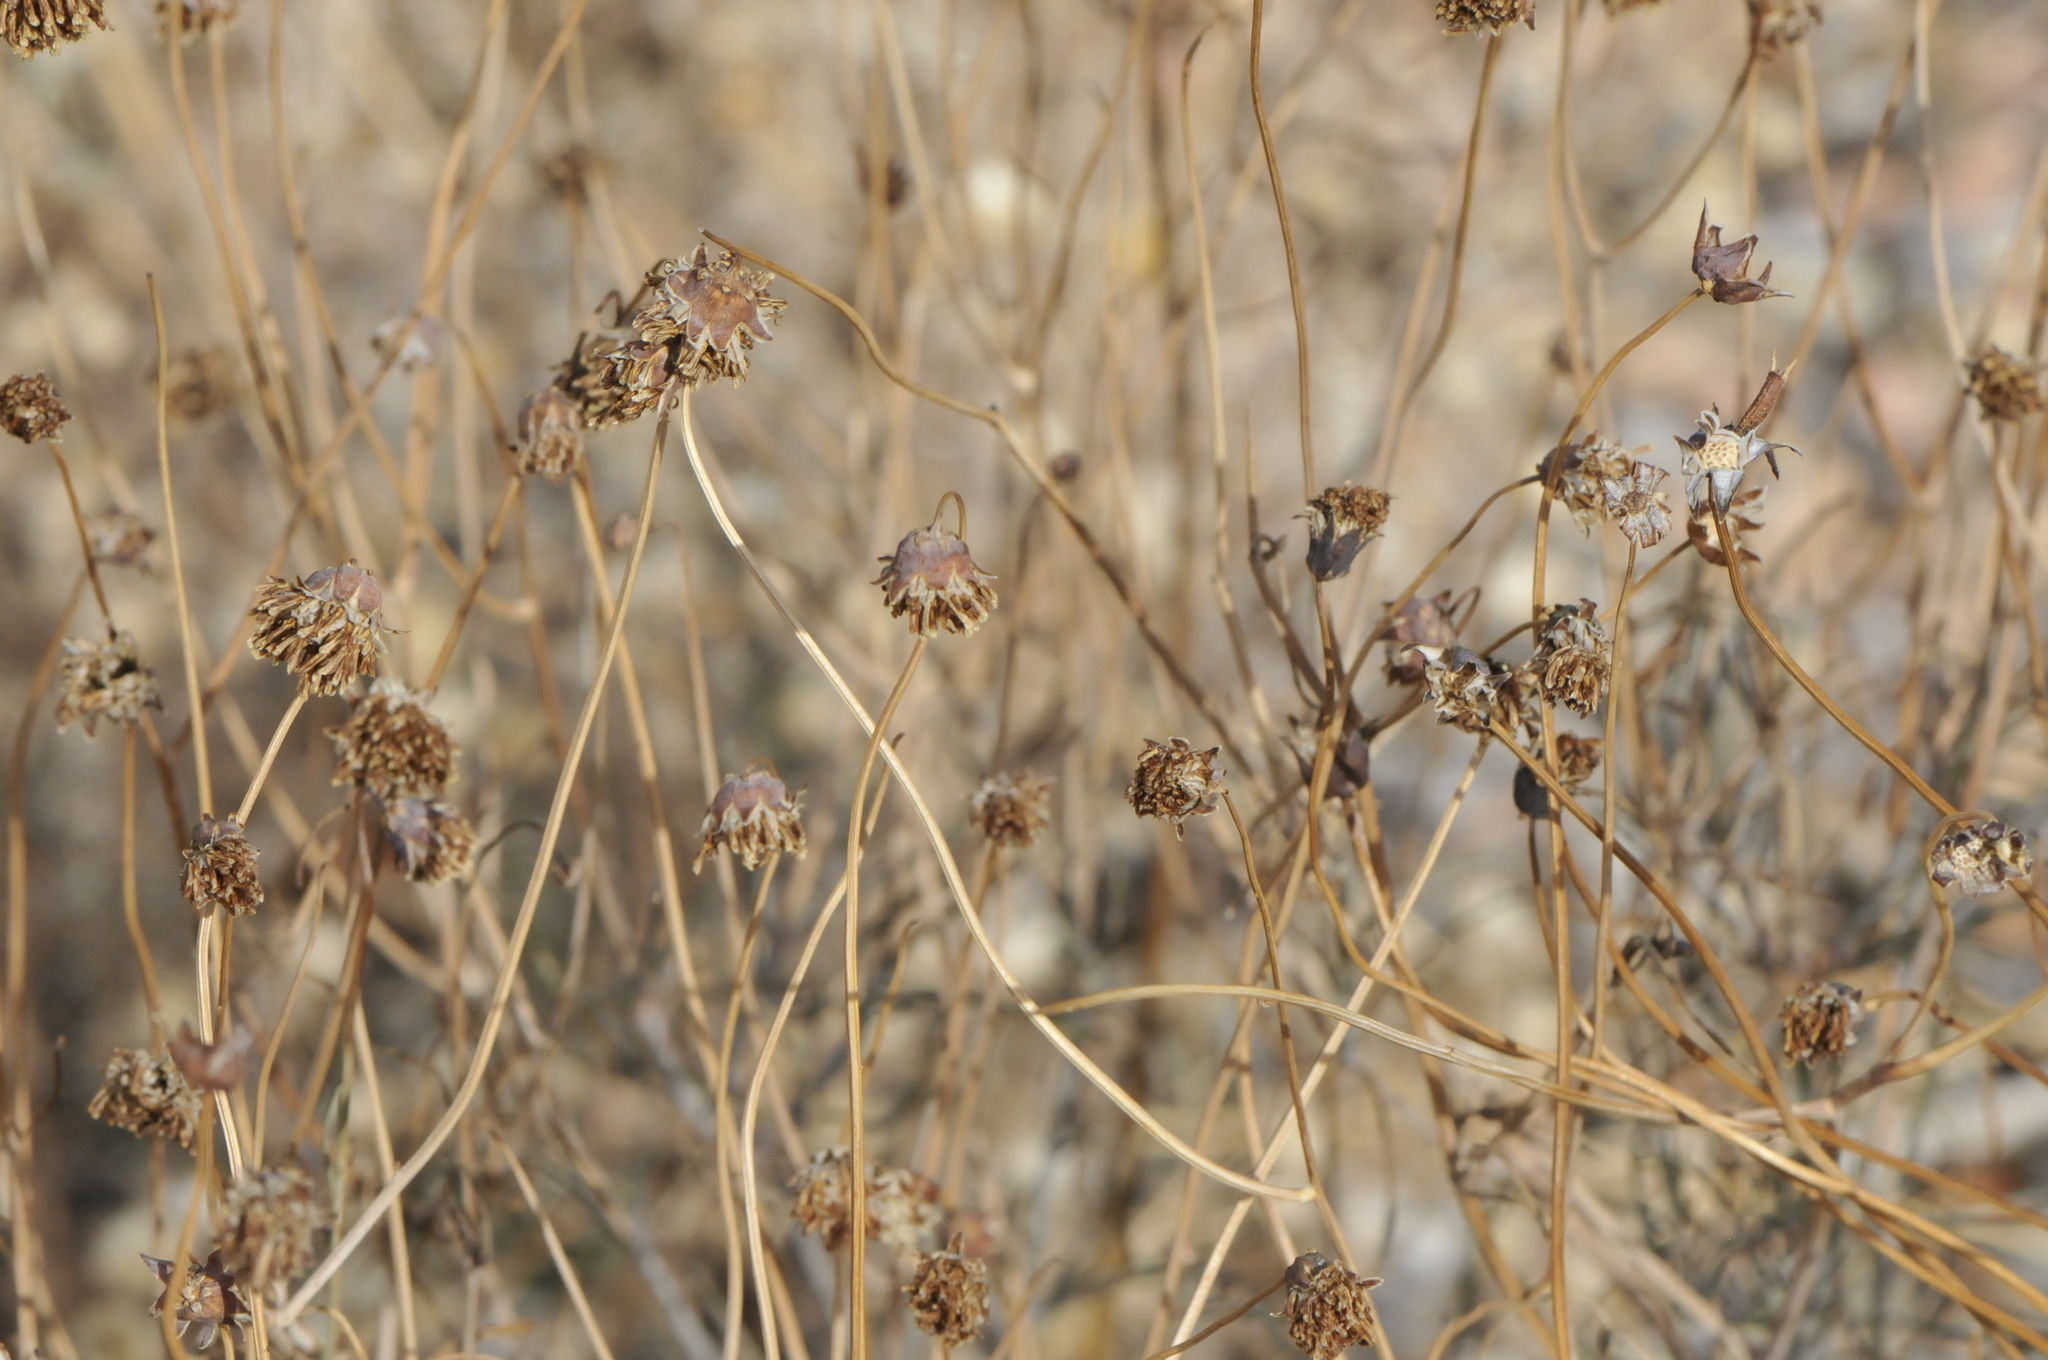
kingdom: Plantae
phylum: Tracheophyta
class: Magnoliopsida
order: Asterales
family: Asteraceae
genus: Thelesperma
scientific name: Thelesperma megapotamicum
